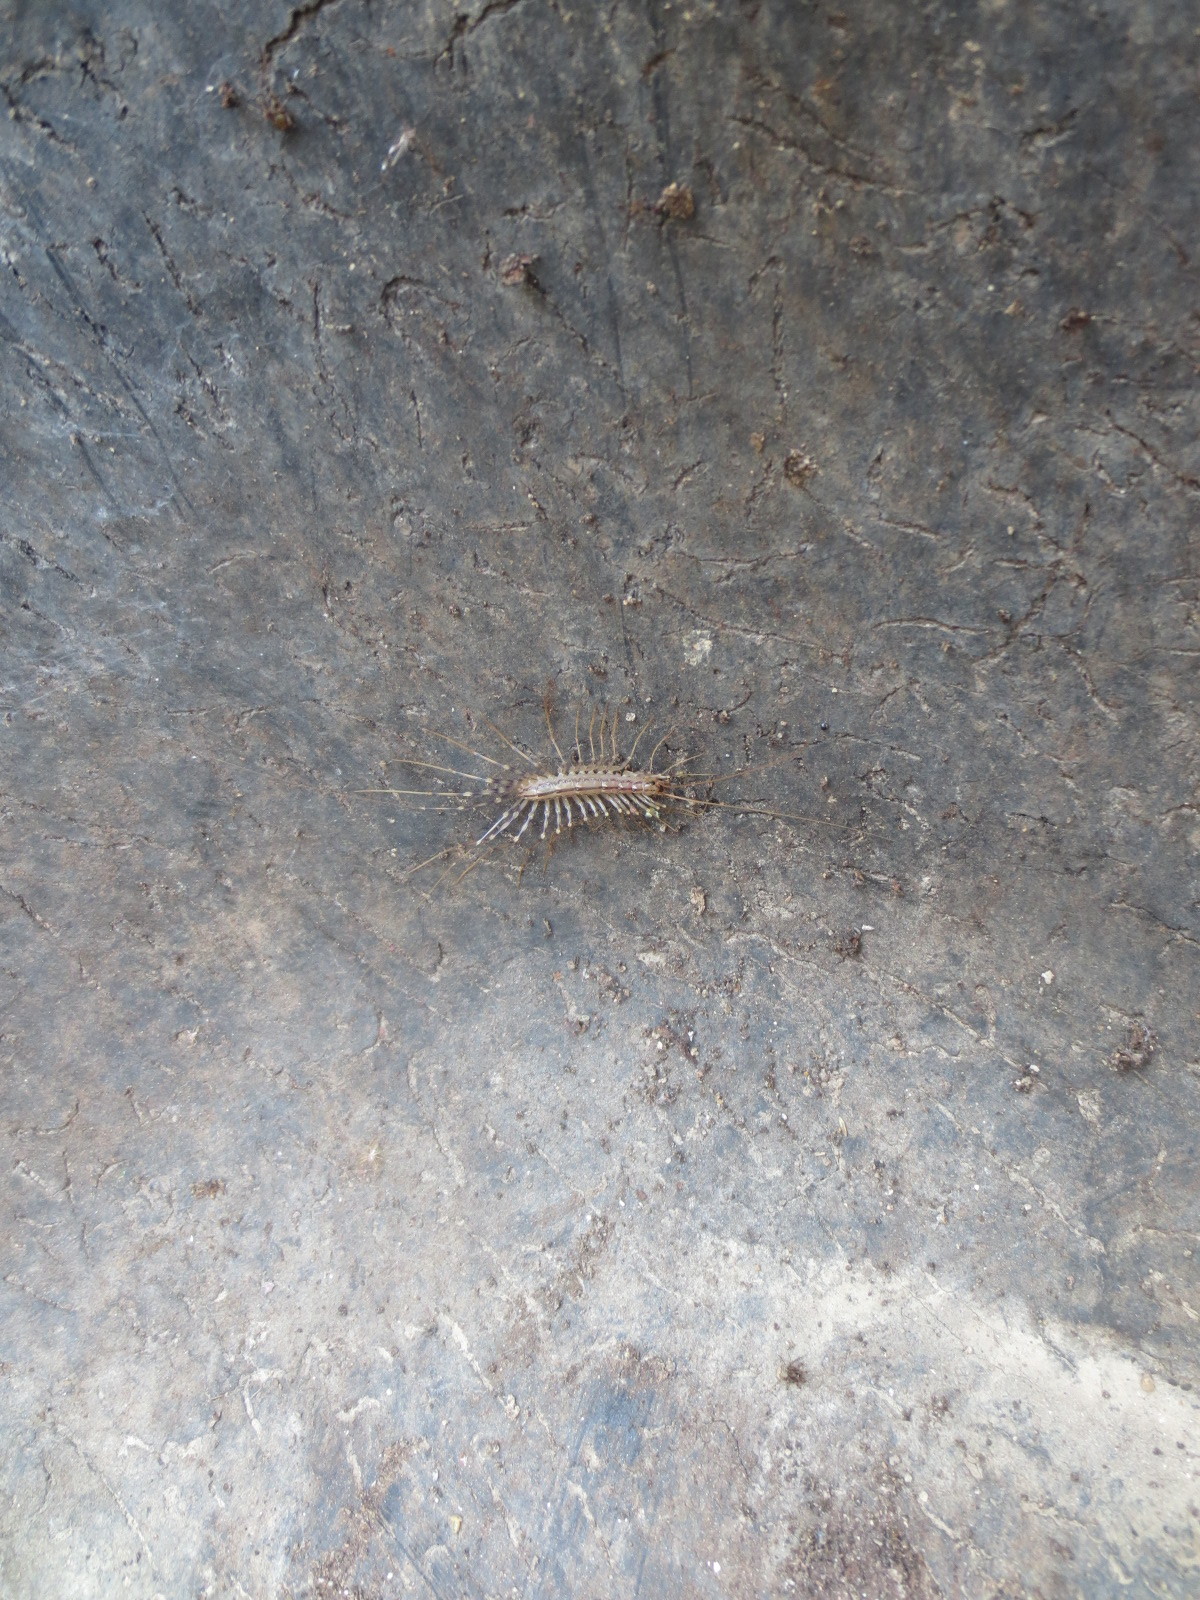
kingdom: Animalia
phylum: Arthropoda
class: Chilopoda
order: Scutigeromorpha
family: Scutigeridae
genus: Scutigera
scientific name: Scutigera coleoptrata
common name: House centipede
